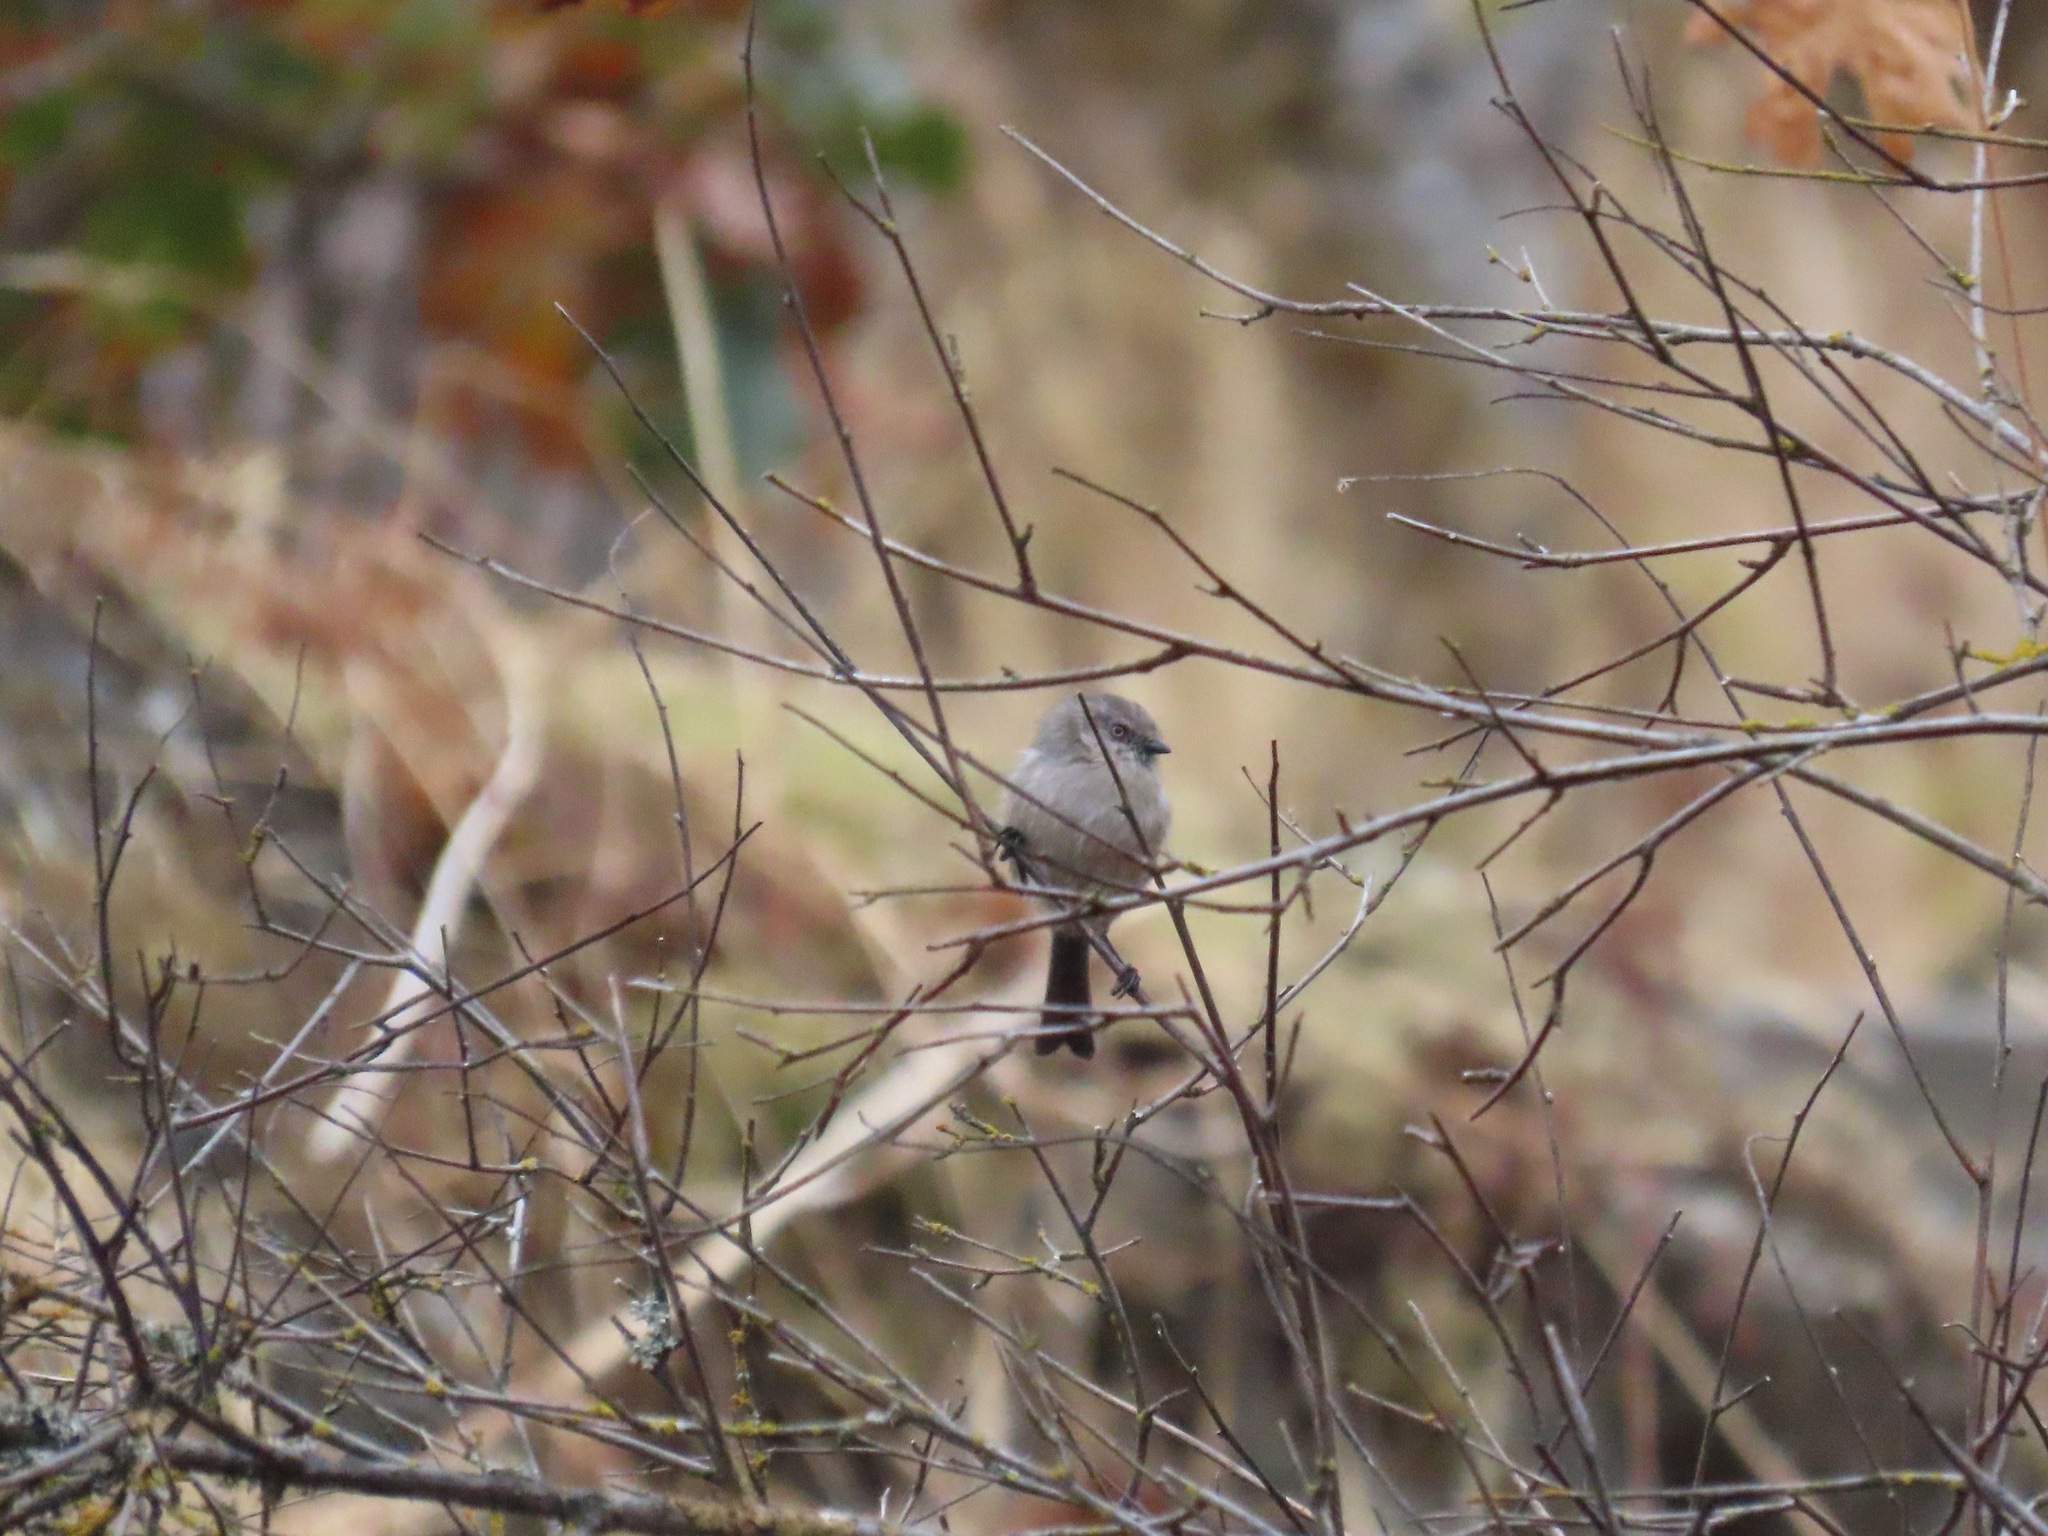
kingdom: Animalia
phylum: Chordata
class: Aves
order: Passeriformes
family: Aegithalidae
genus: Psaltriparus
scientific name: Psaltriparus minimus
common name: American bushtit
